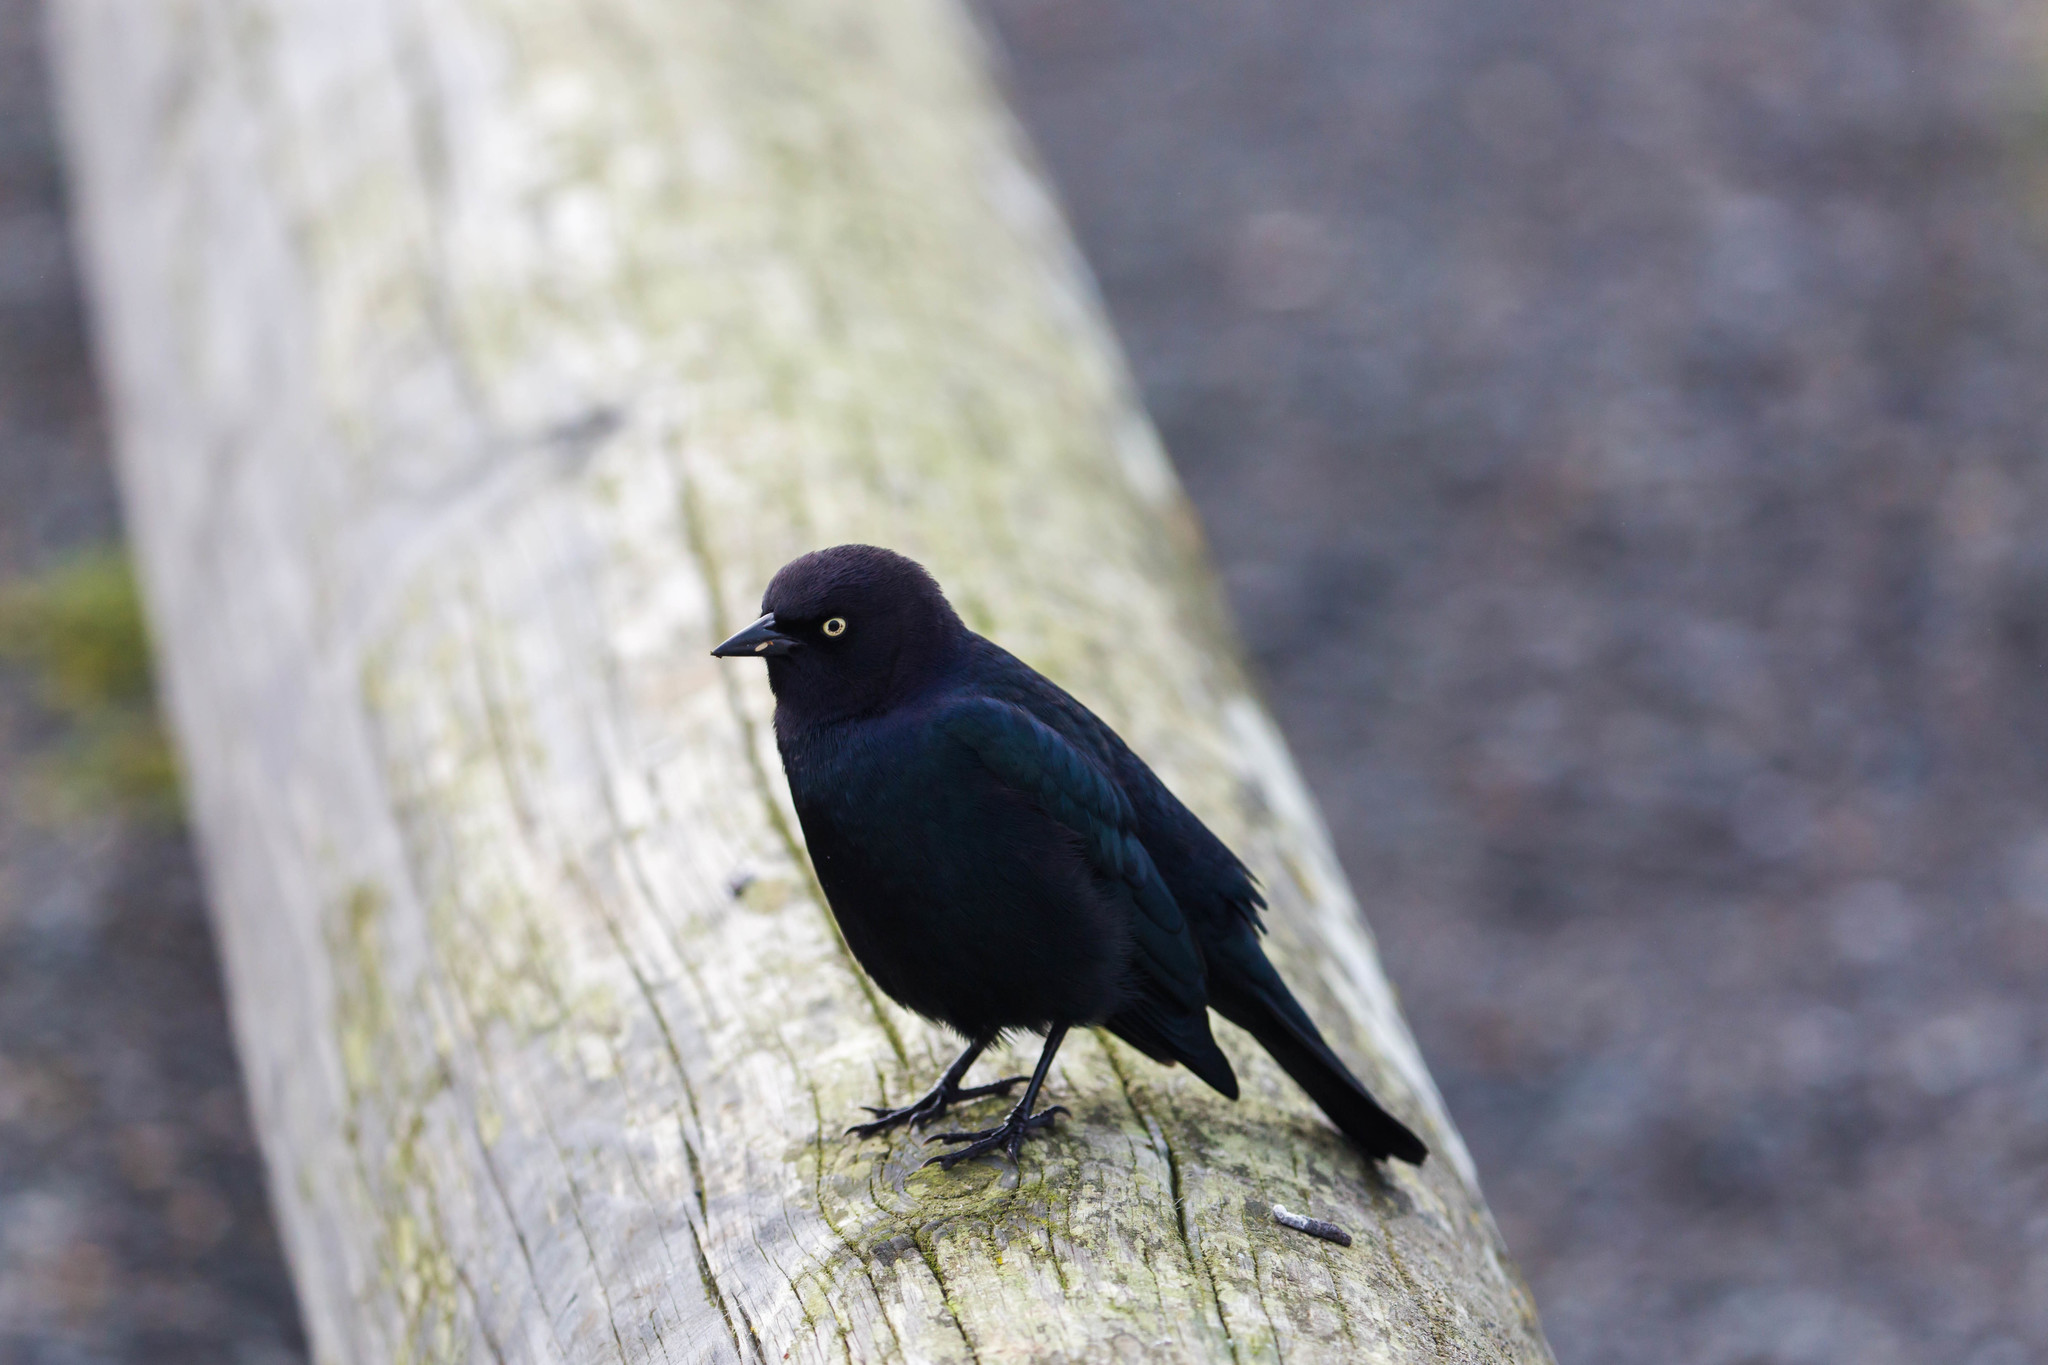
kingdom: Animalia
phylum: Chordata
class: Aves
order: Passeriformes
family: Icteridae
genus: Euphagus
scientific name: Euphagus cyanocephalus
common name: Brewer's blackbird
